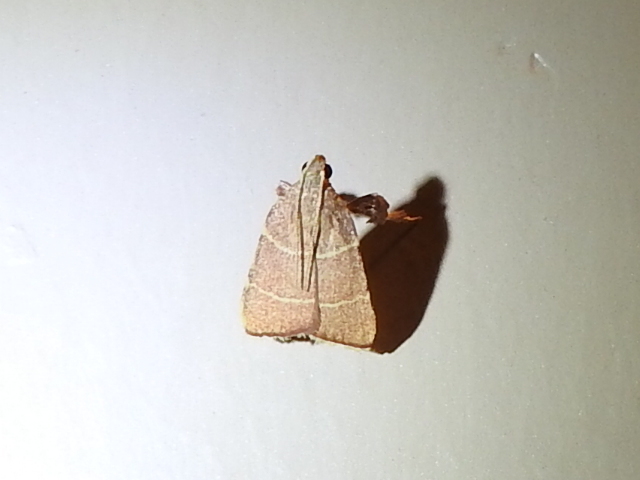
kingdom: Animalia
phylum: Arthropoda
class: Insecta
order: Lepidoptera
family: Pyralidae
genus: Parachma
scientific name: Parachma ochracealis
